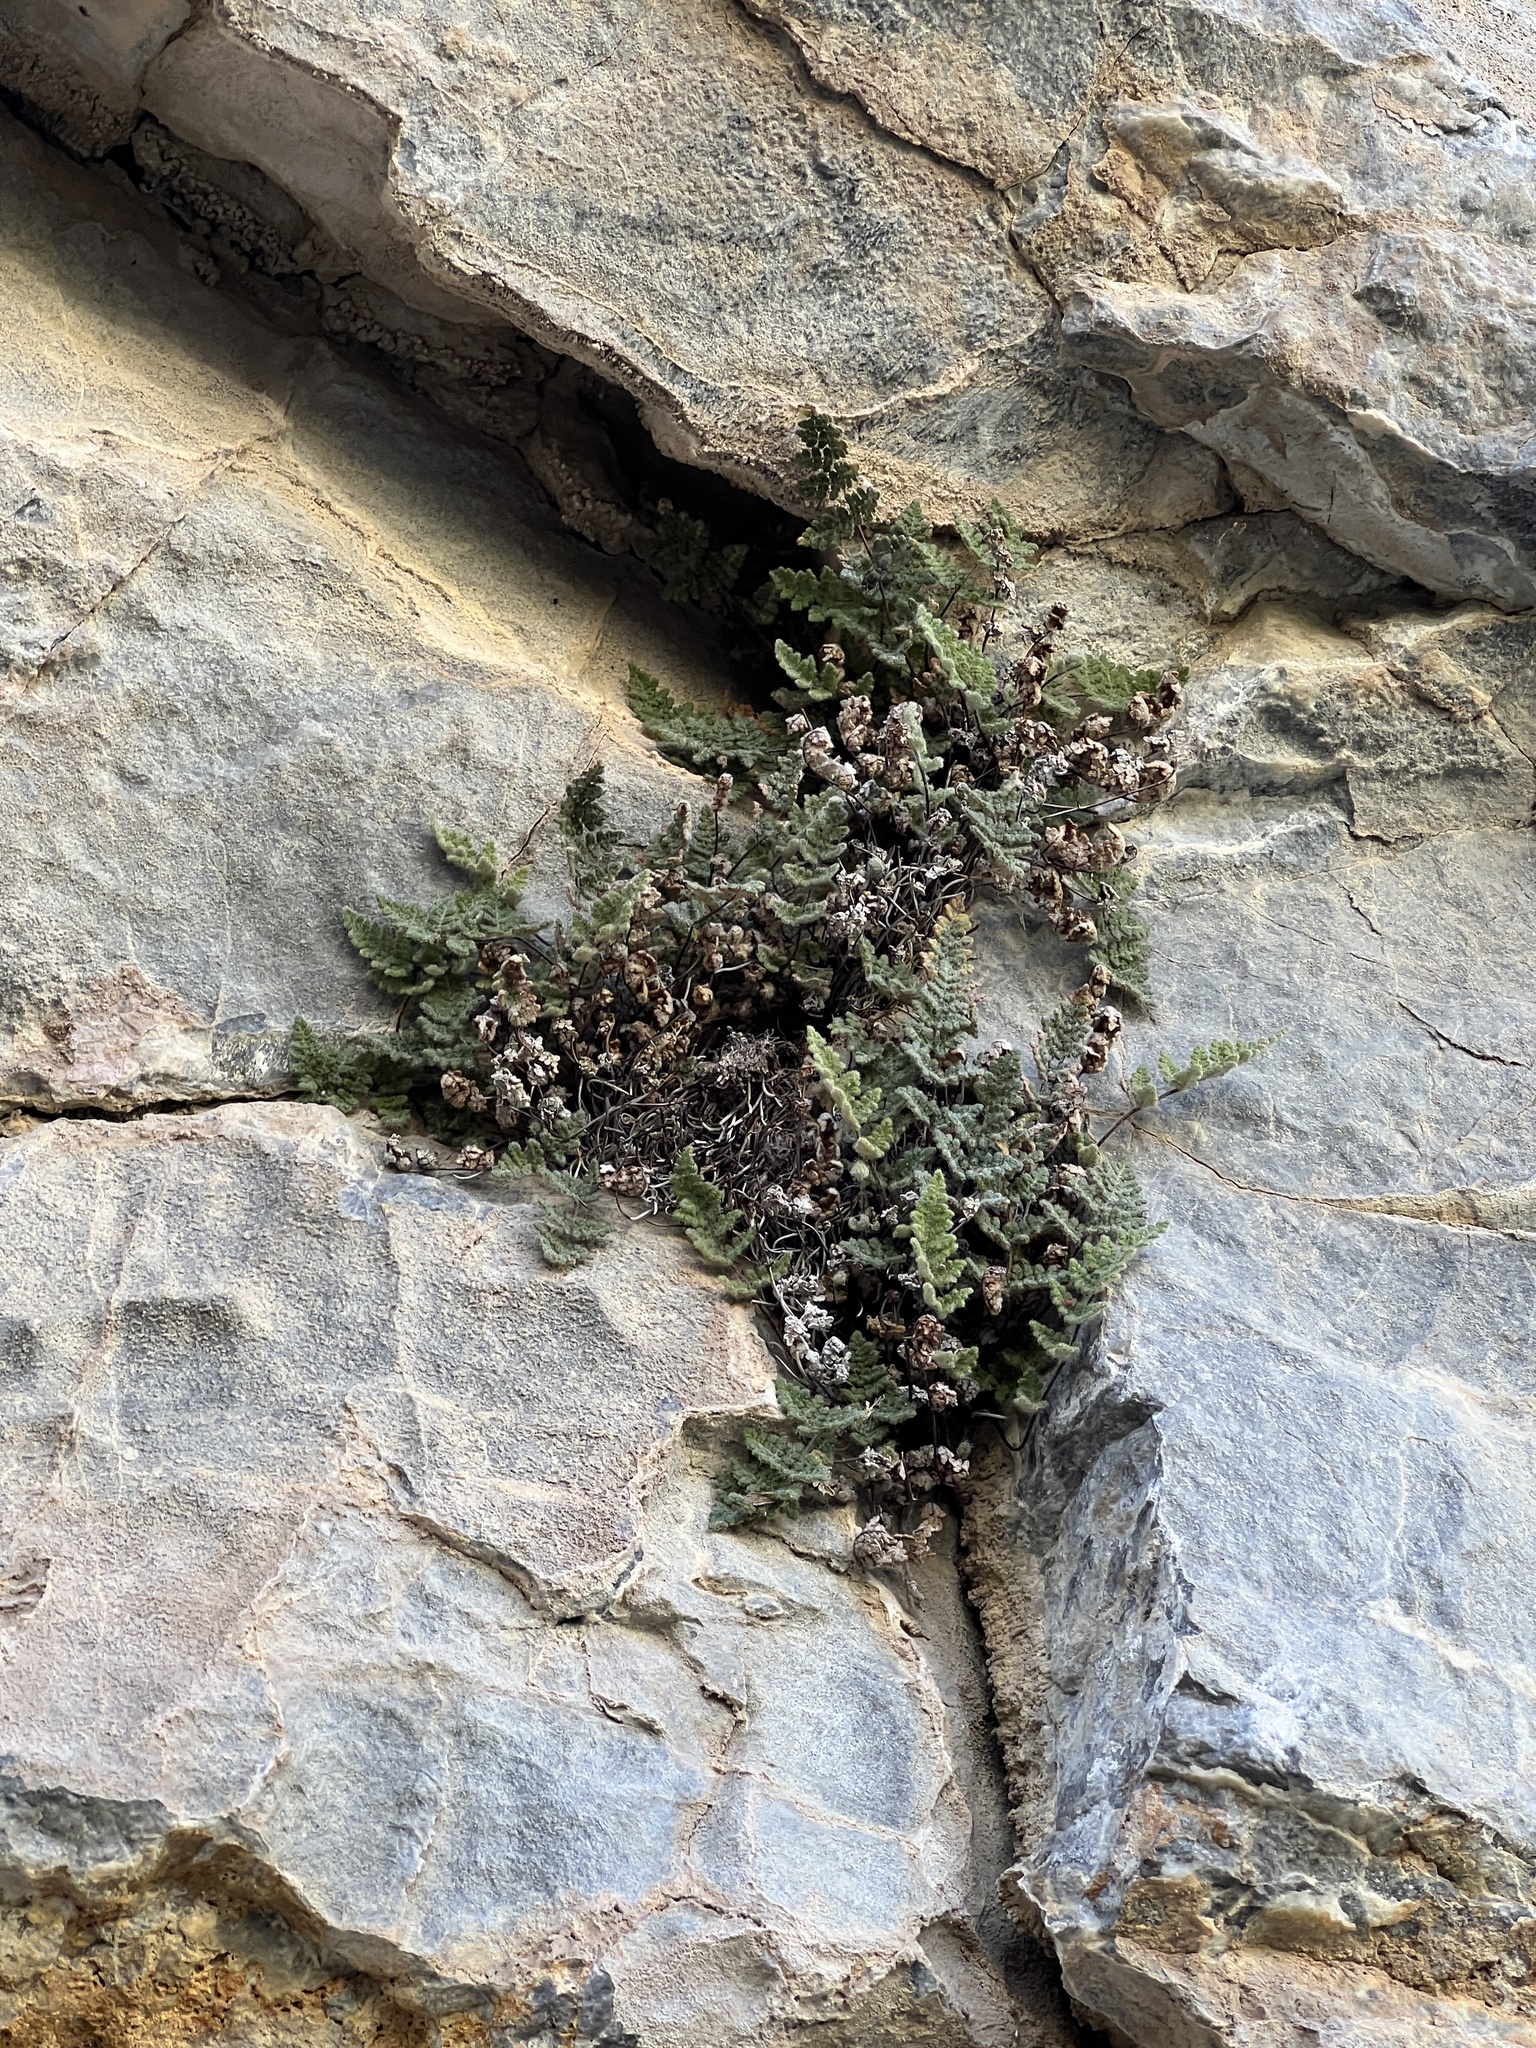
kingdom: Plantae
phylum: Tracheophyta
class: Polypodiopsida
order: Polypodiales
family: Pteridaceae
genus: Myriopteris
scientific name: Myriopteris gracilis
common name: Fee's lip fern
